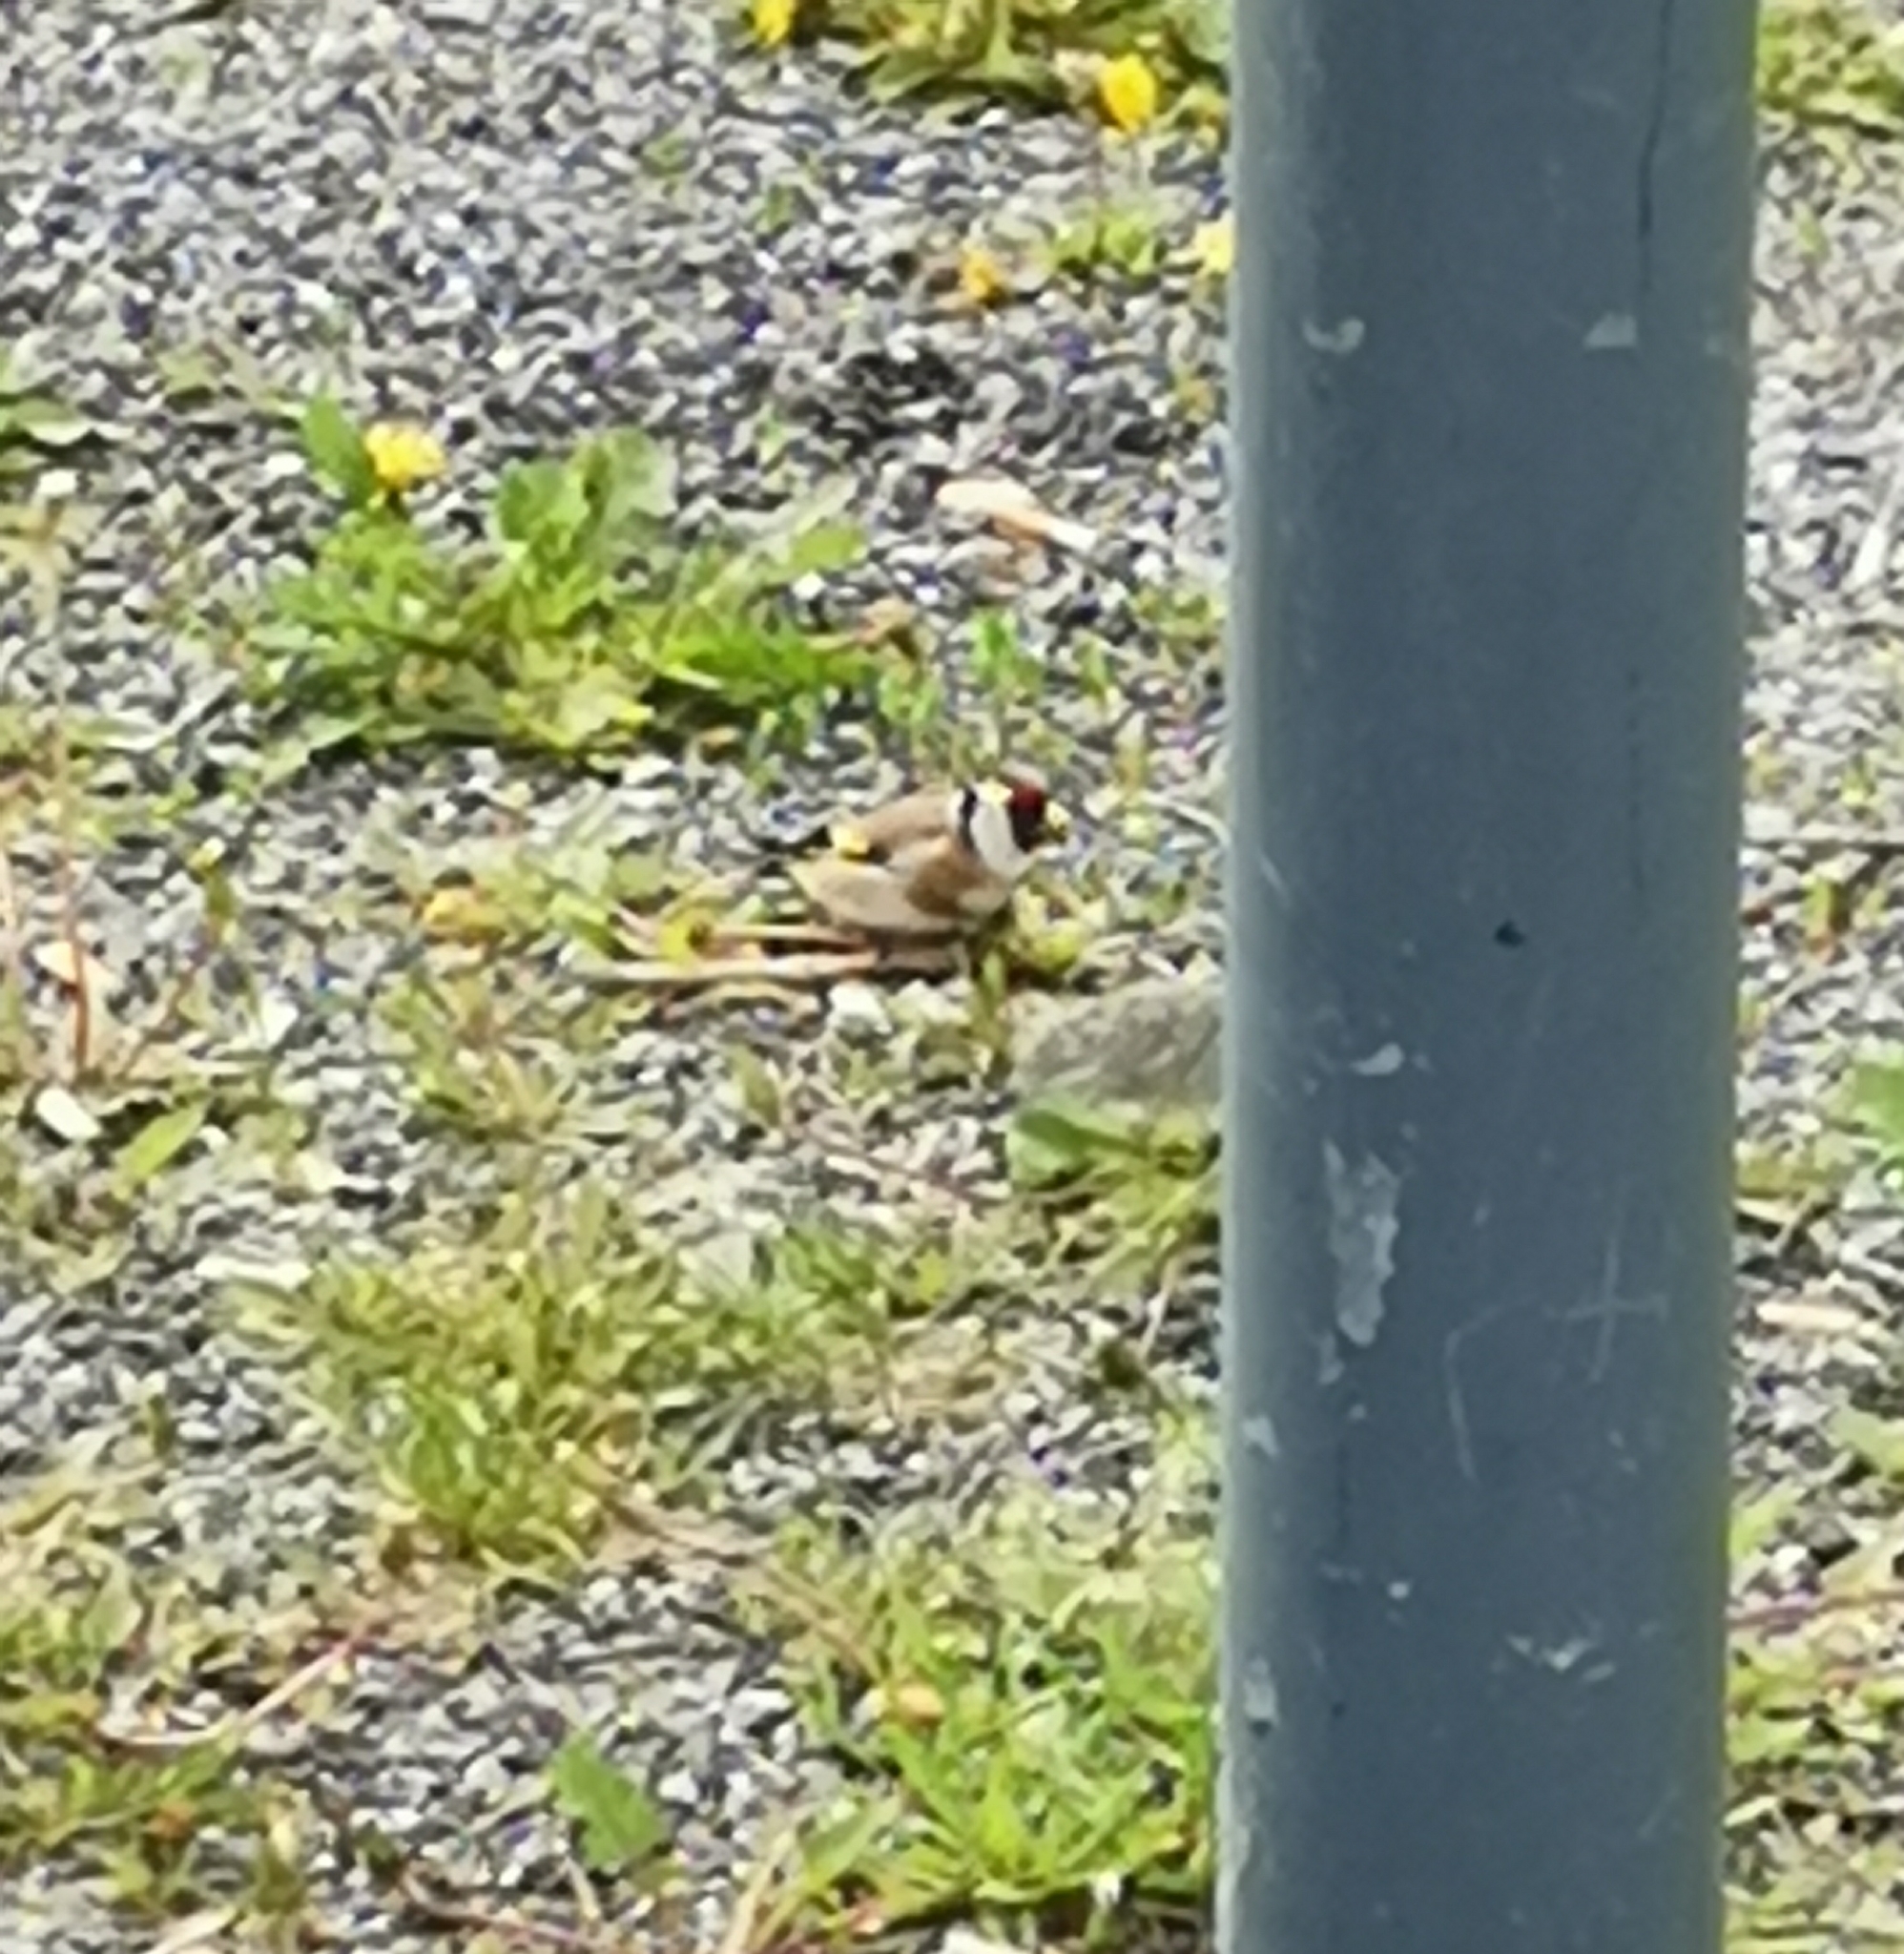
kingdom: Animalia
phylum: Chordata
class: Aves
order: Passeriformes
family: Fringillidae
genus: Carduelis
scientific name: Carduelis carduelis
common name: European goldfinch
